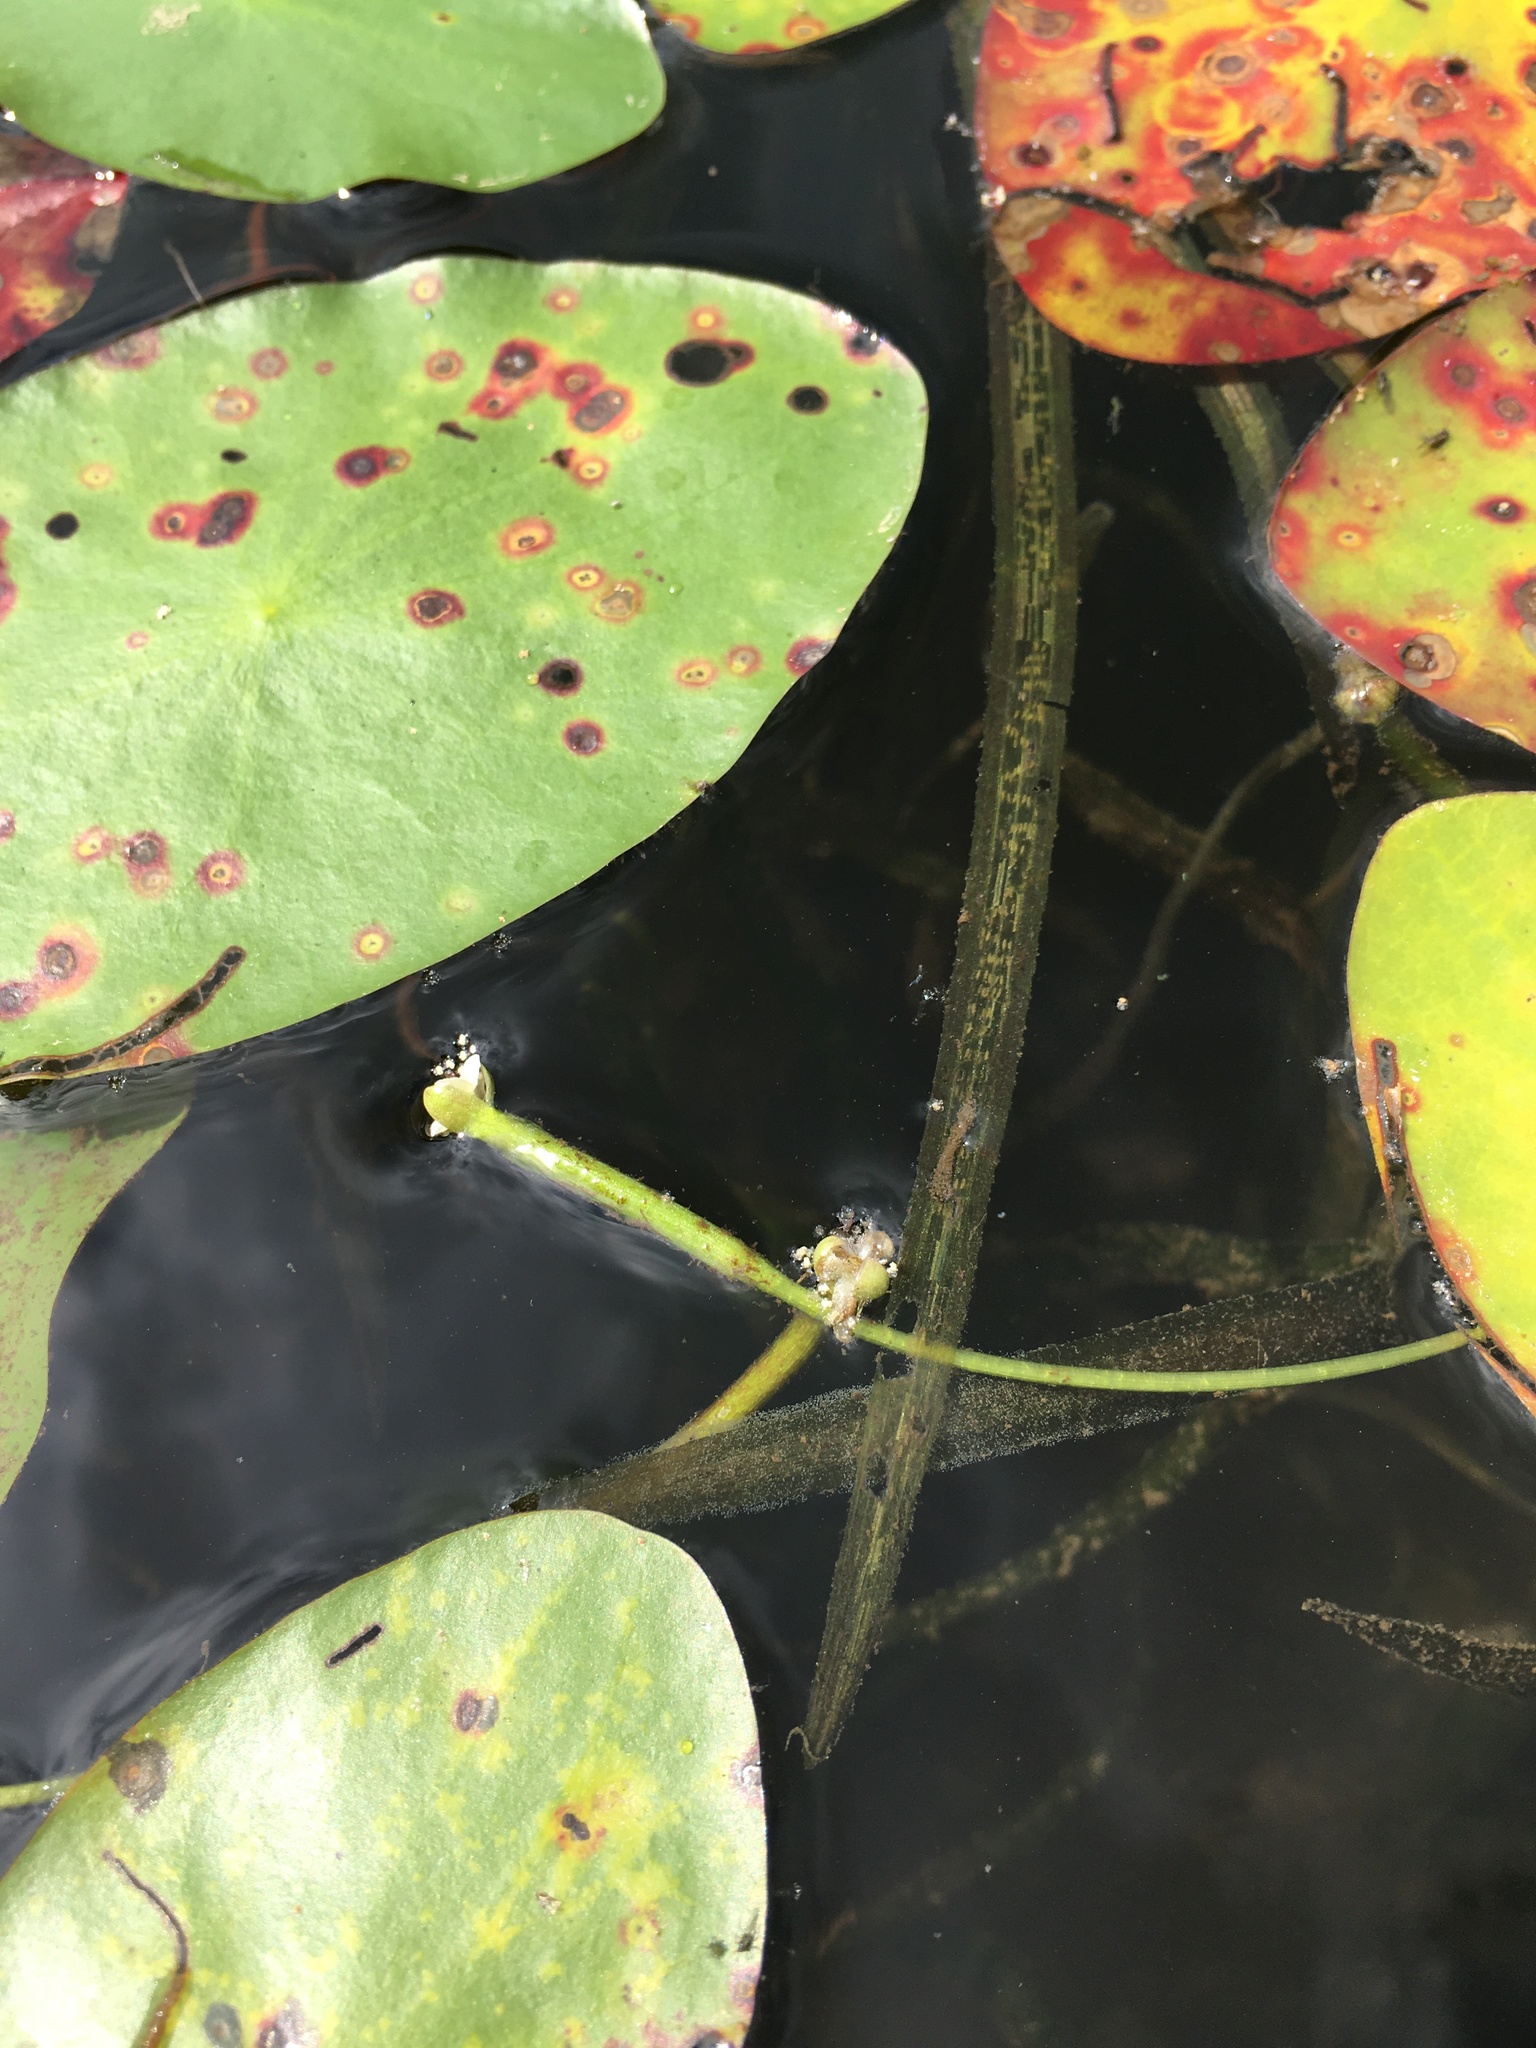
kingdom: Plantae
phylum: Tracheophyta
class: Liliopsida
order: Alismatales
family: Hydrocharitaceae
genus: Vallisneria
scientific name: Vallisneria americana
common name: American eelgrass
